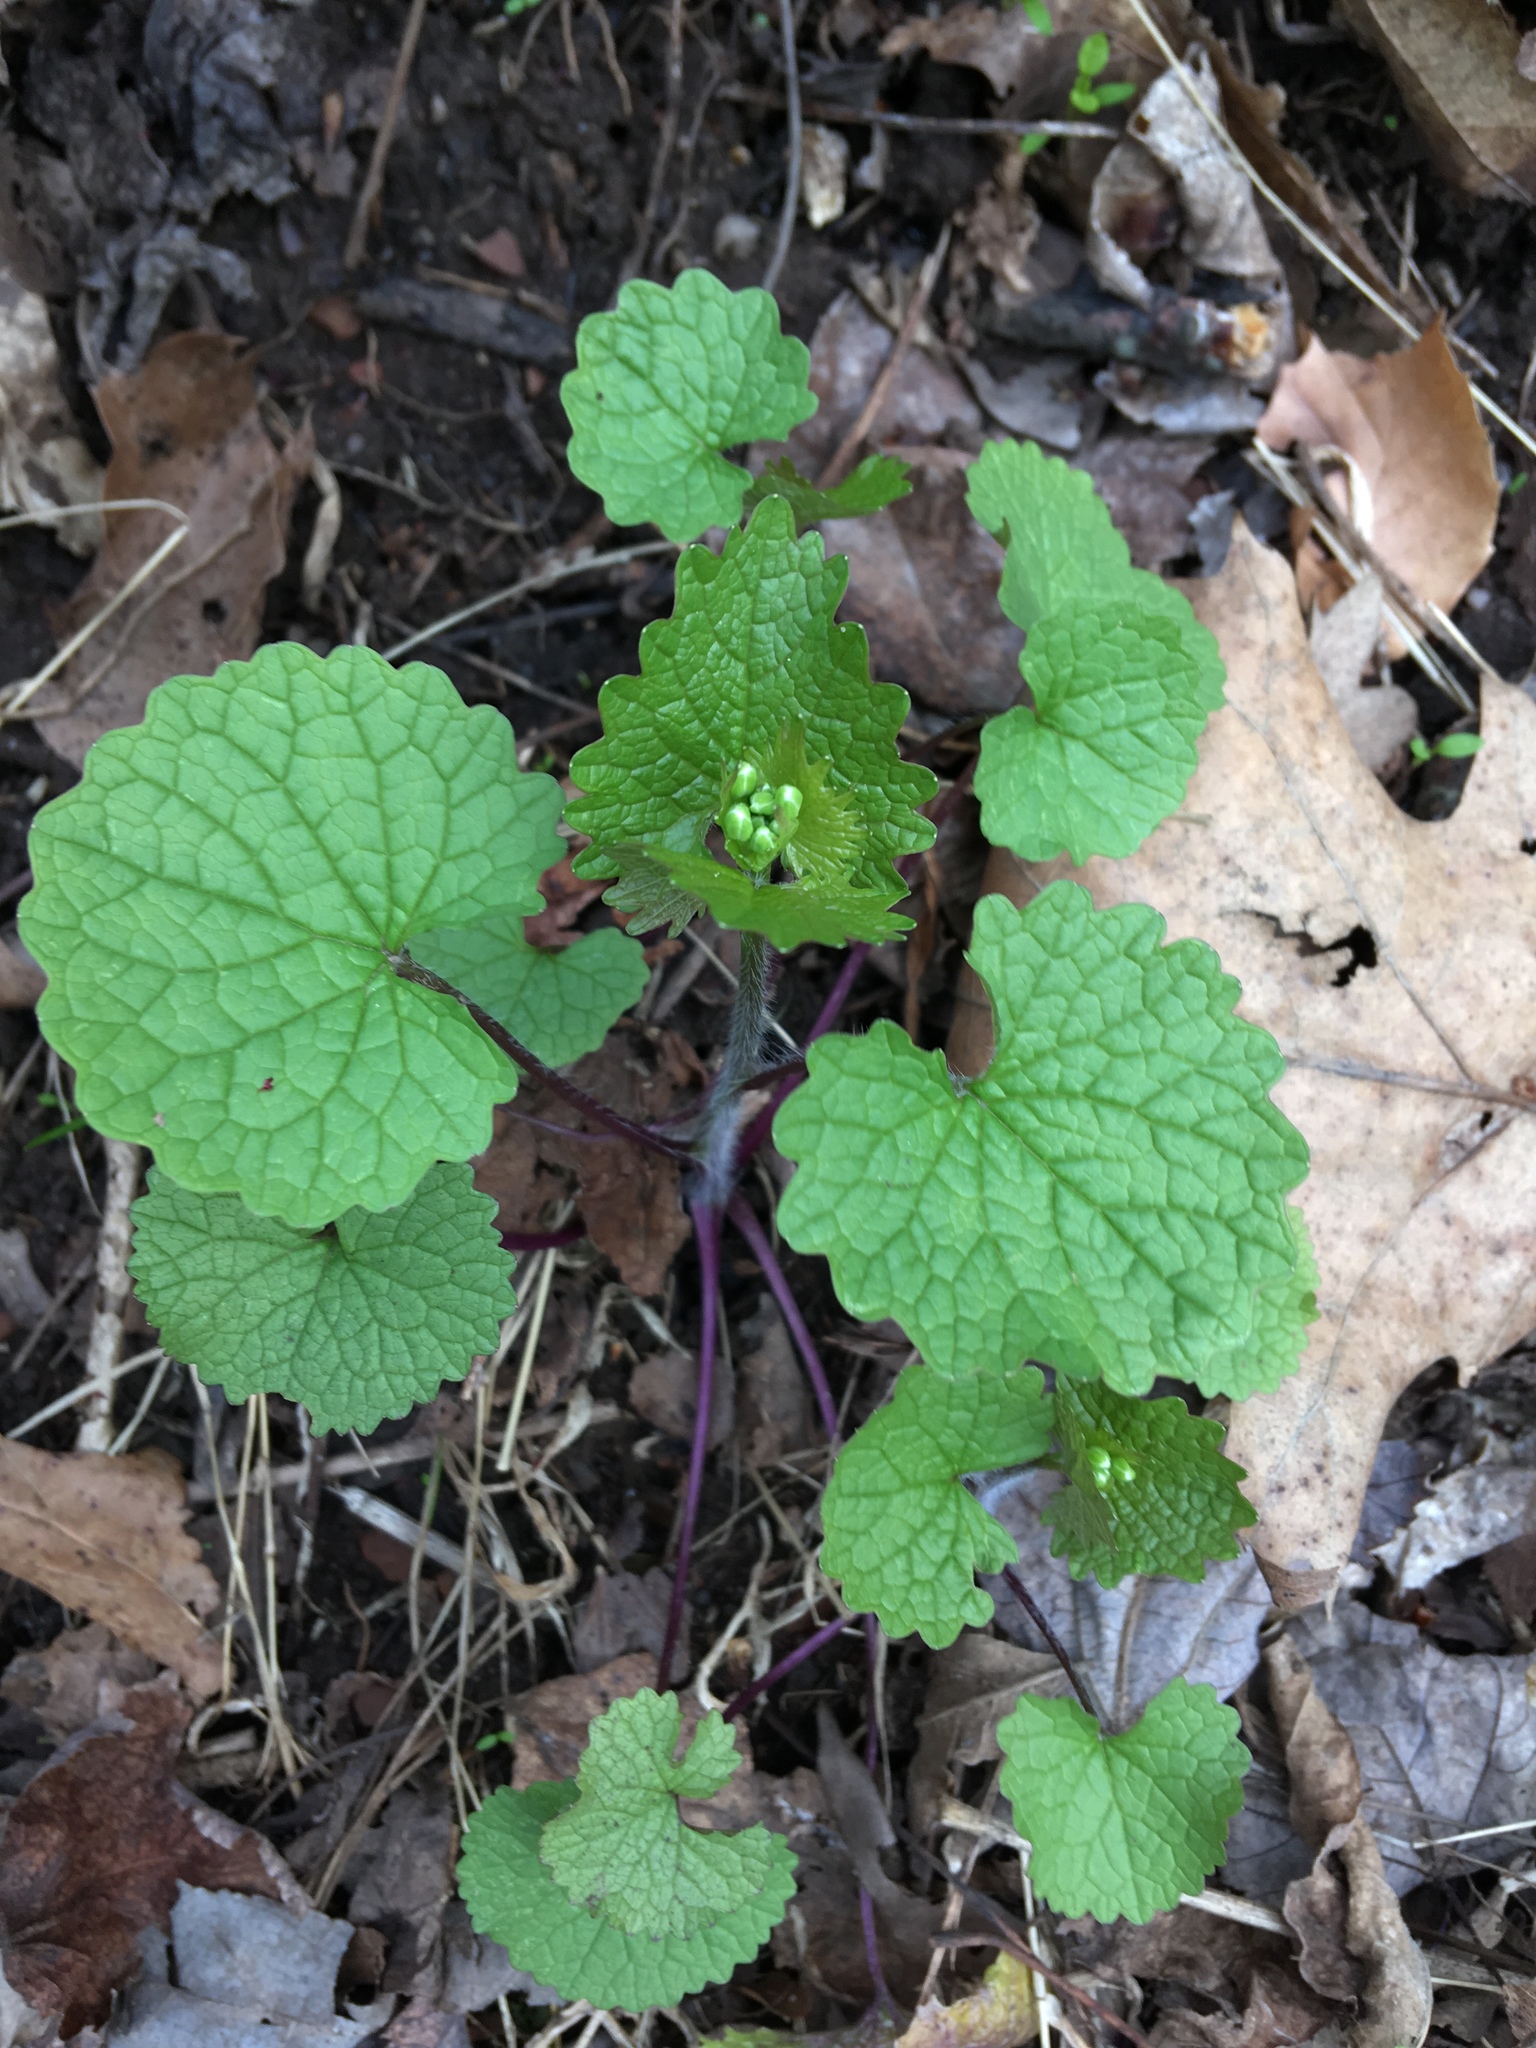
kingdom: Plantae
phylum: Tracheophyta
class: Magnoliopsida
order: Brassicales
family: Brassicaceae
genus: Alliaria
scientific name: Alliaria petiolata
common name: Garlic mustard
